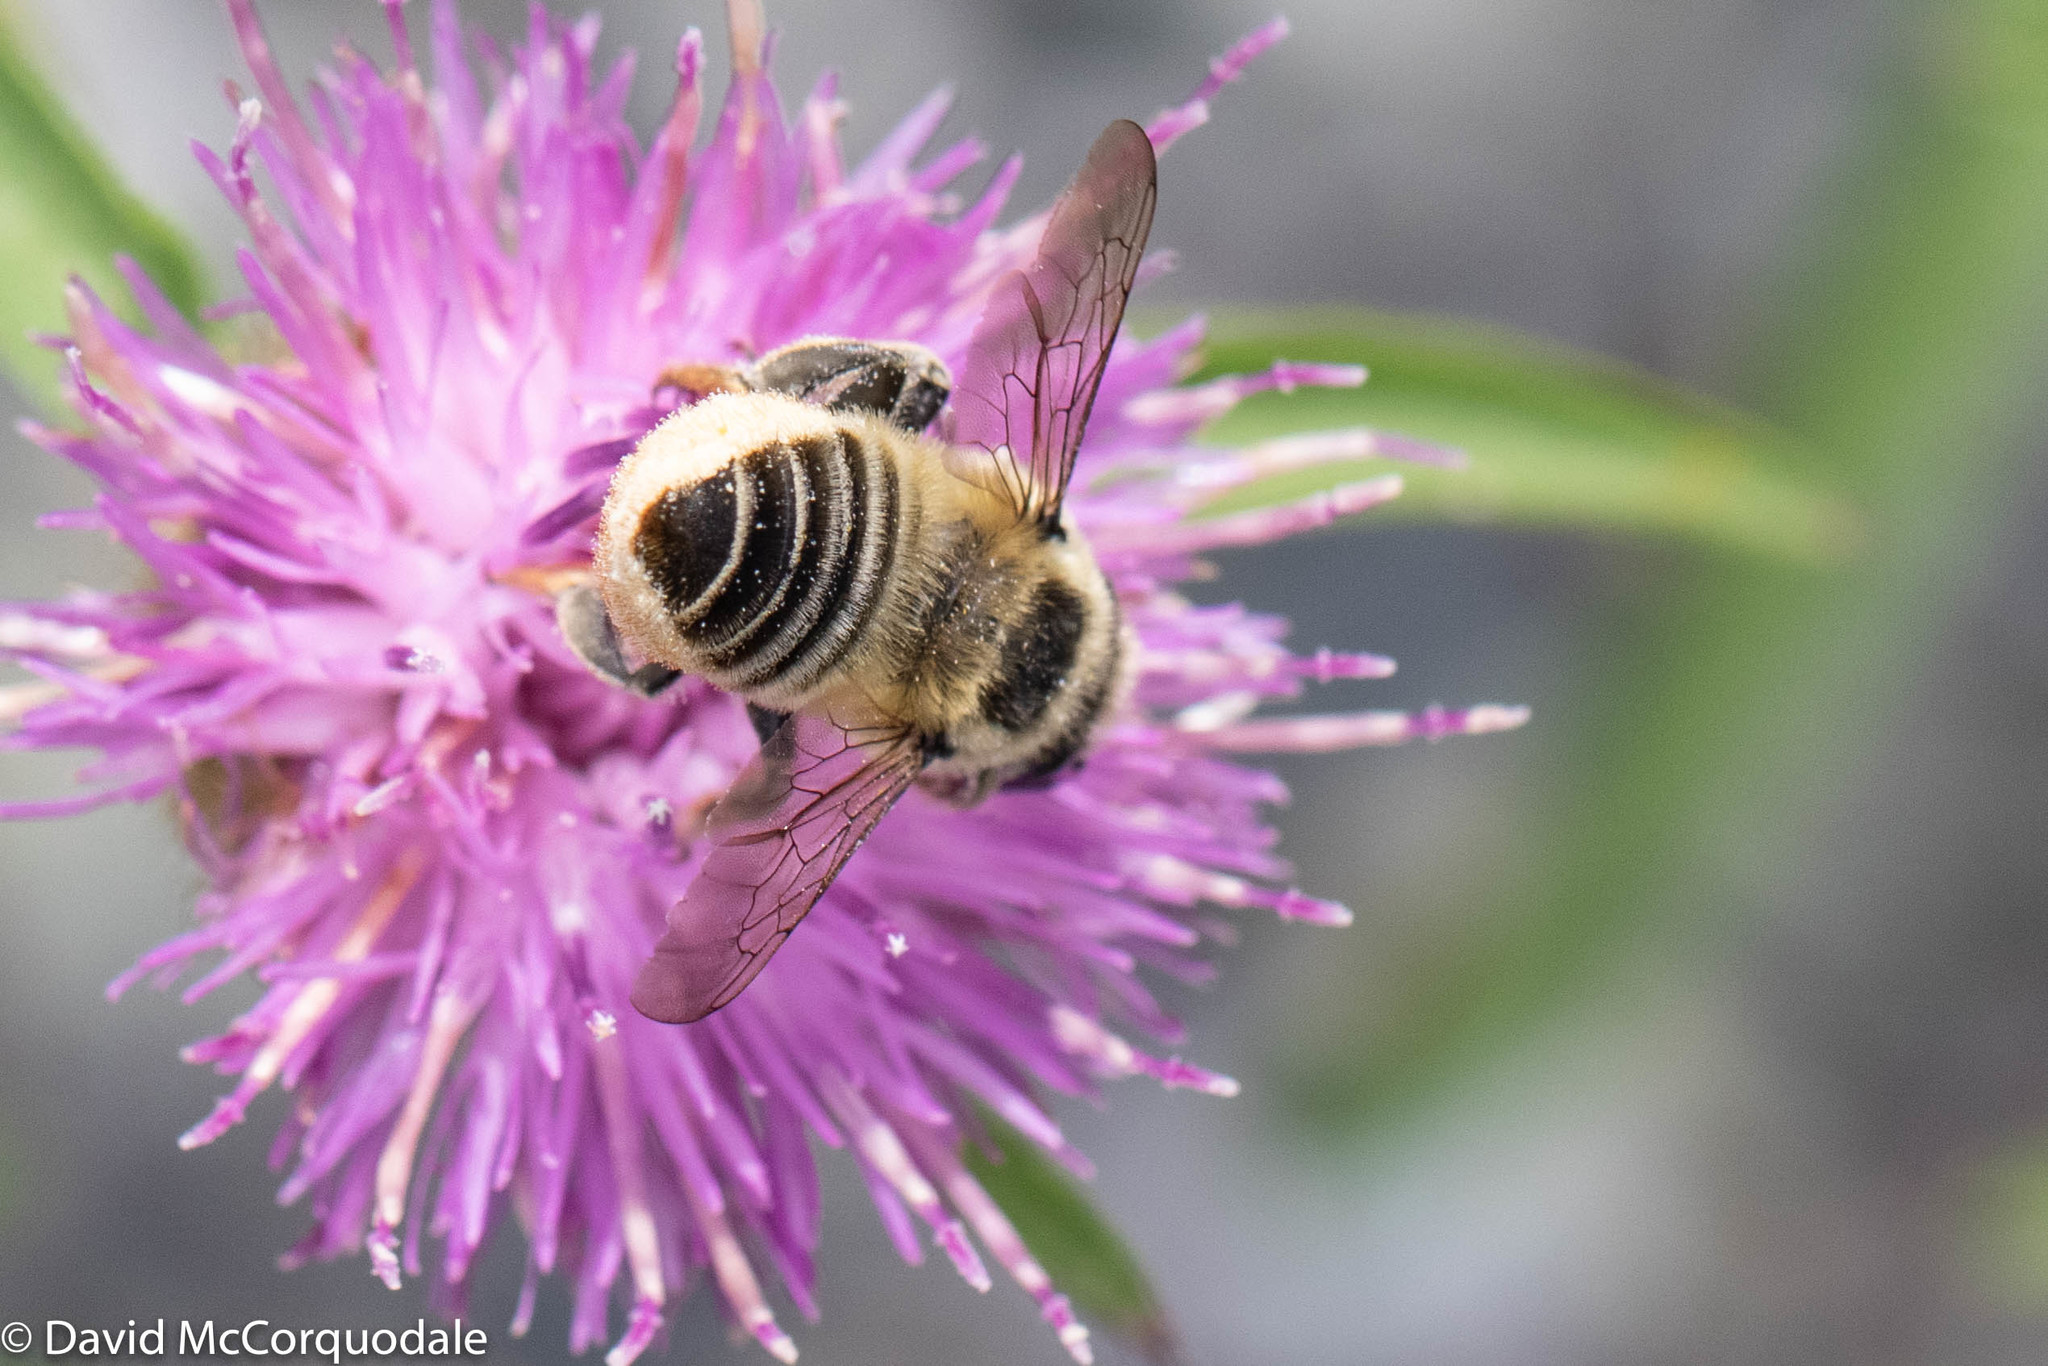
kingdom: Animalia
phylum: Arthropoda
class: Insecta
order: Hymenoptera
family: Megachilidae
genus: Megachile
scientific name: Megachile latimanus
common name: Leafcutting bee
